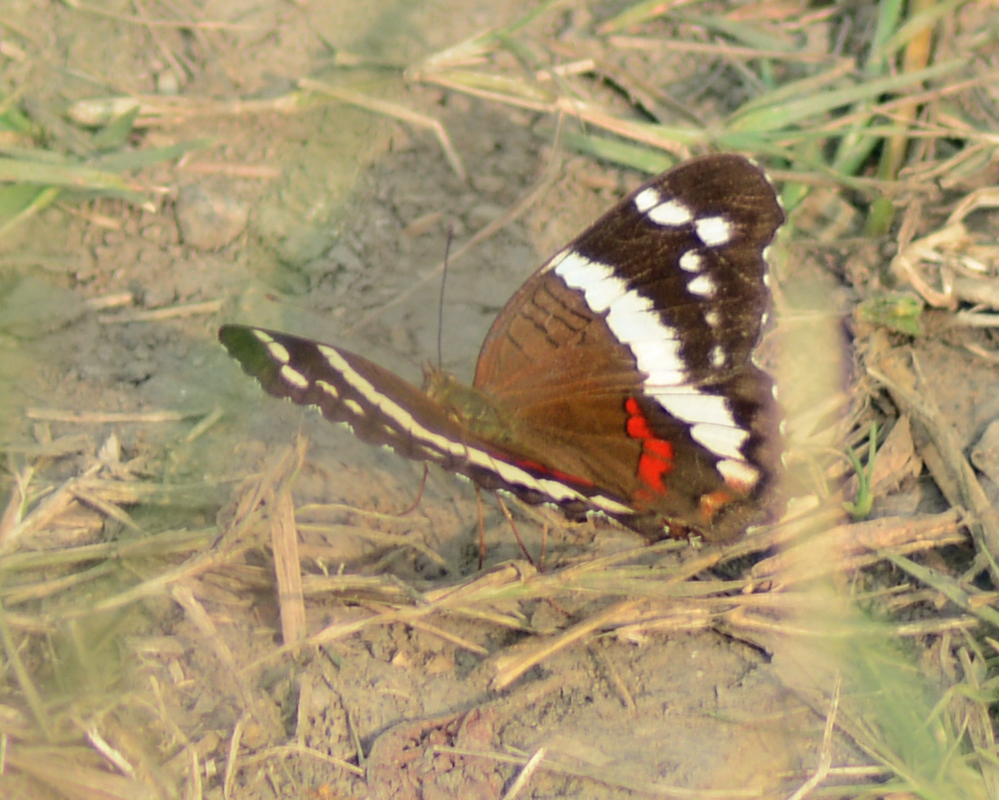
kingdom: Animalia
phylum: Arthropoda
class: Insecta
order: Lepidoptera
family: Nymphalidae
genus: Anartia
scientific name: Anartia fatima
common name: Banded peacock
